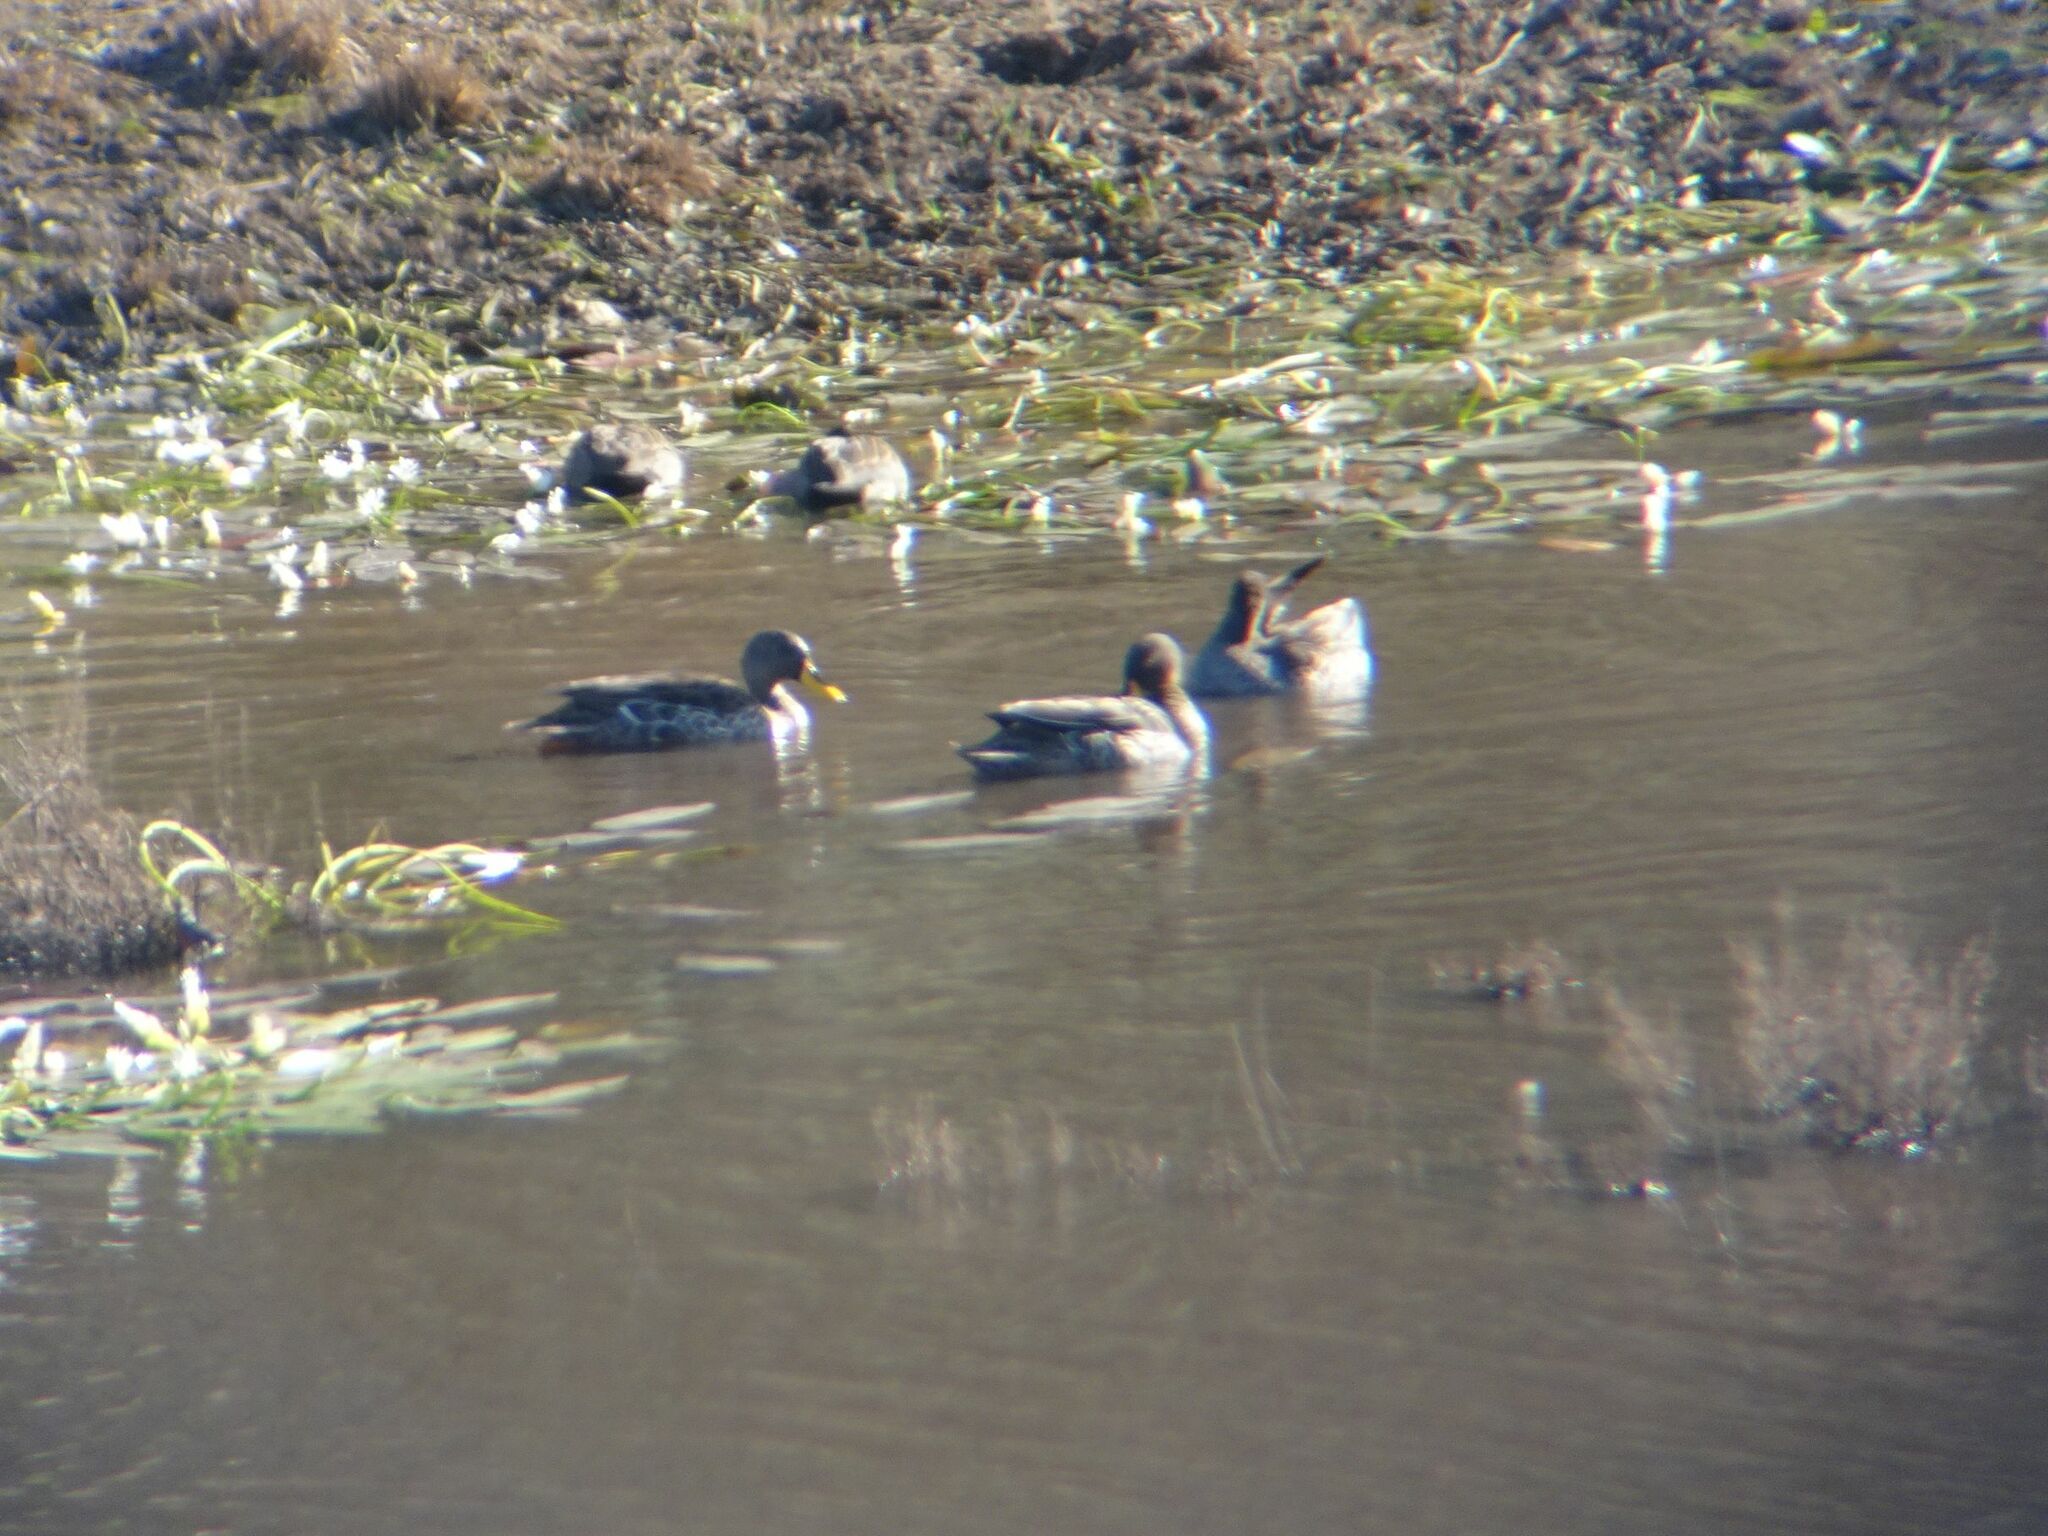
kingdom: Animalia
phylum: Chordata
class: Aves
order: Anseriformes
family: Anatidae
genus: Anas
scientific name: Anas undulata
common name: Yellow-billed duck
